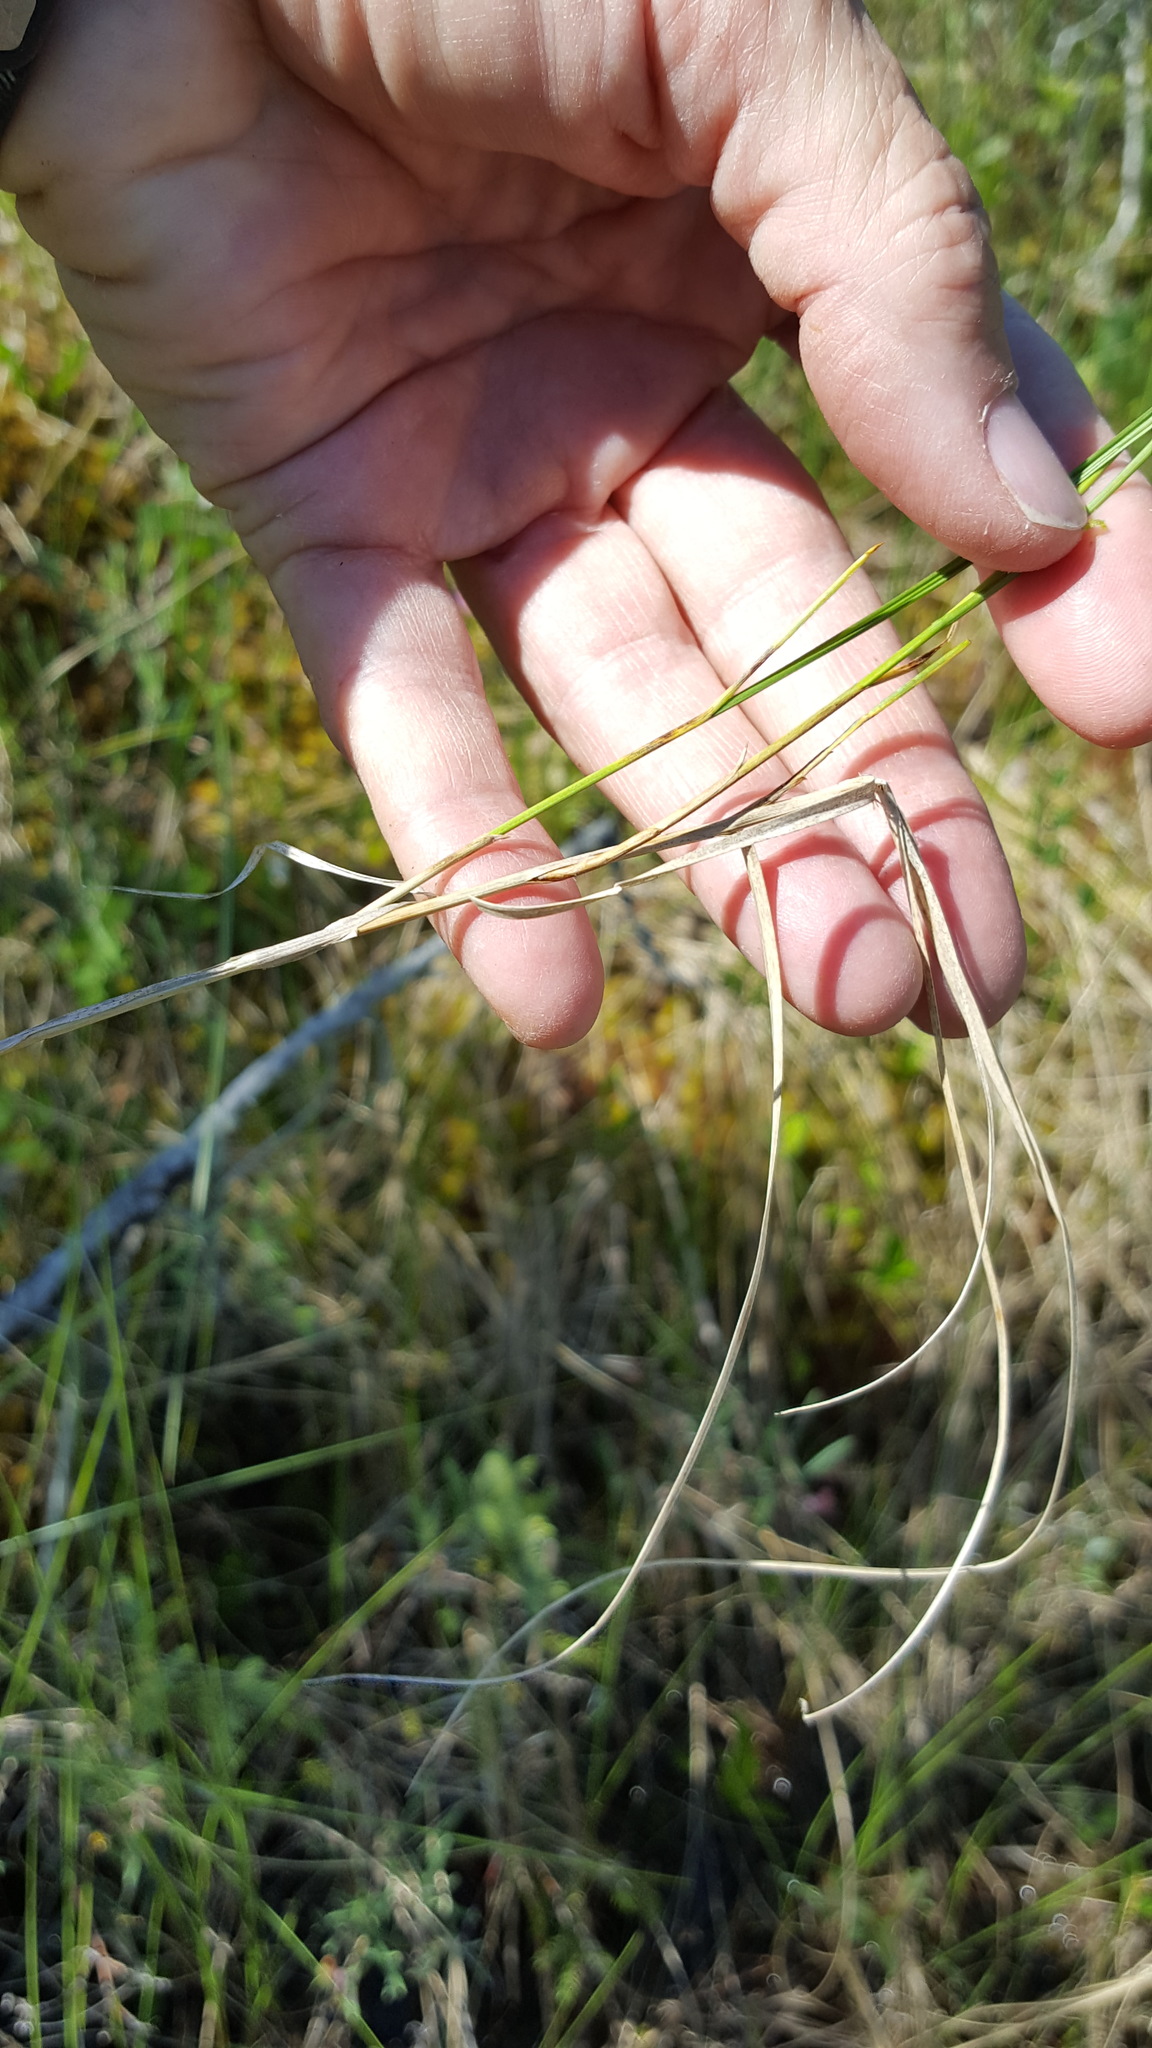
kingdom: Plantae
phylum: Tracheophyta
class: Liliopsida
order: Poales
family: Cyperaceae
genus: Carex
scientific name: Carex chordorrhiza
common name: String sedge
